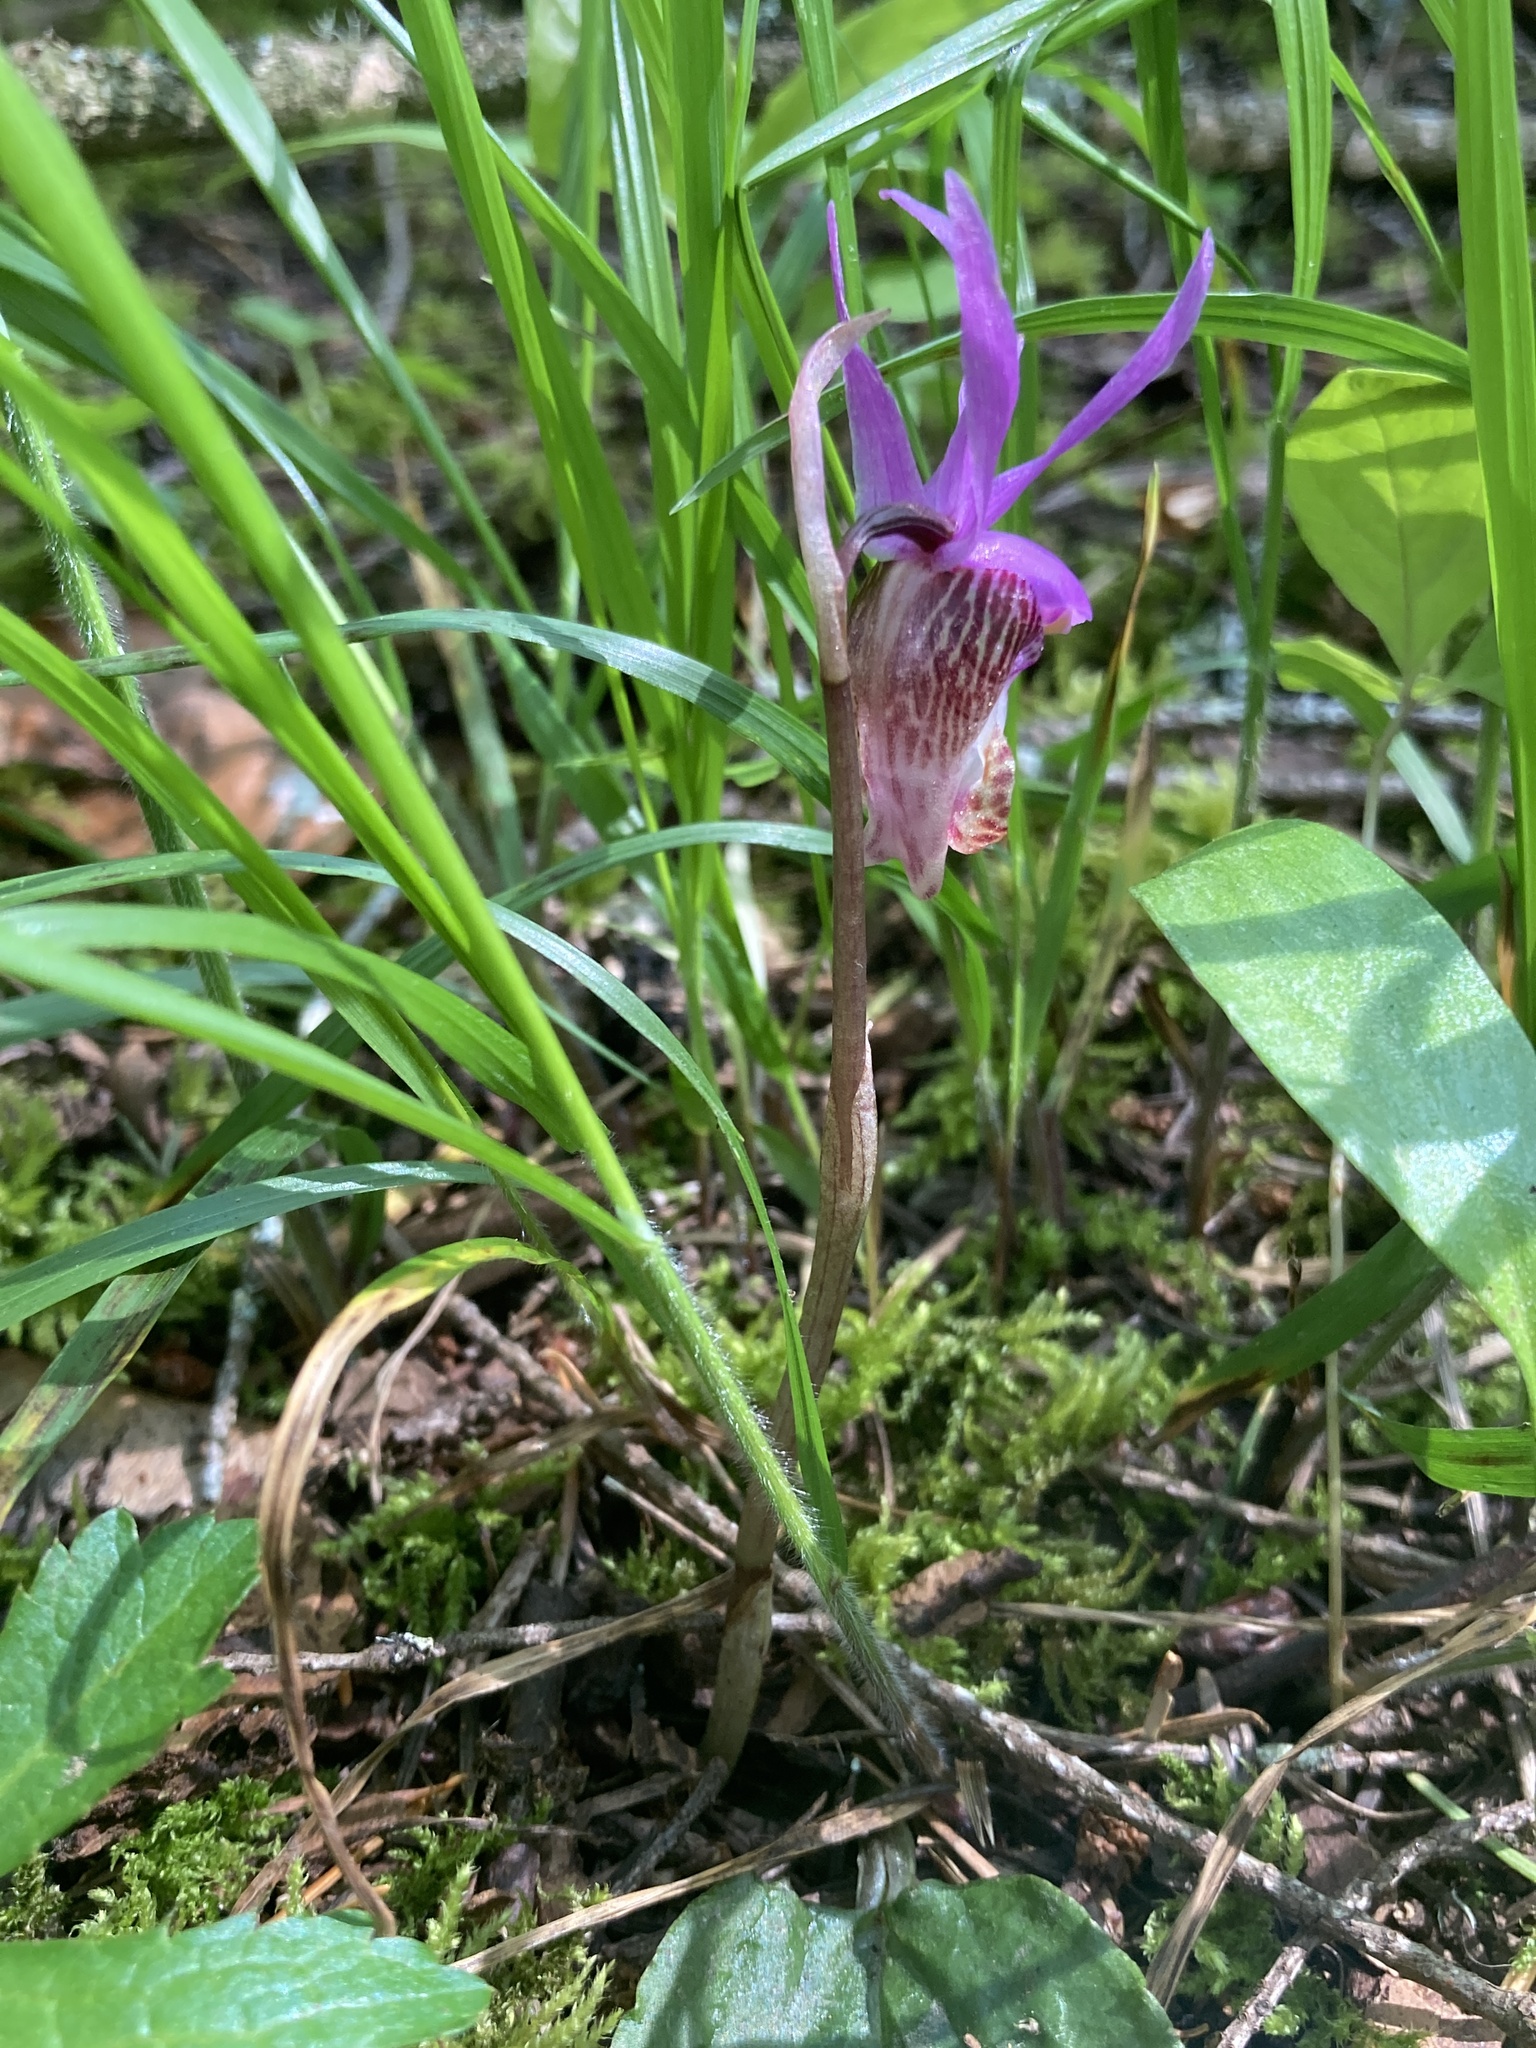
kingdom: Plantae
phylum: Tracheophyta
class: Liliopsida
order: Asparagales
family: Orchidaceae
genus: Calypso
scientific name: Calypso bulbosa
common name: Calypso
